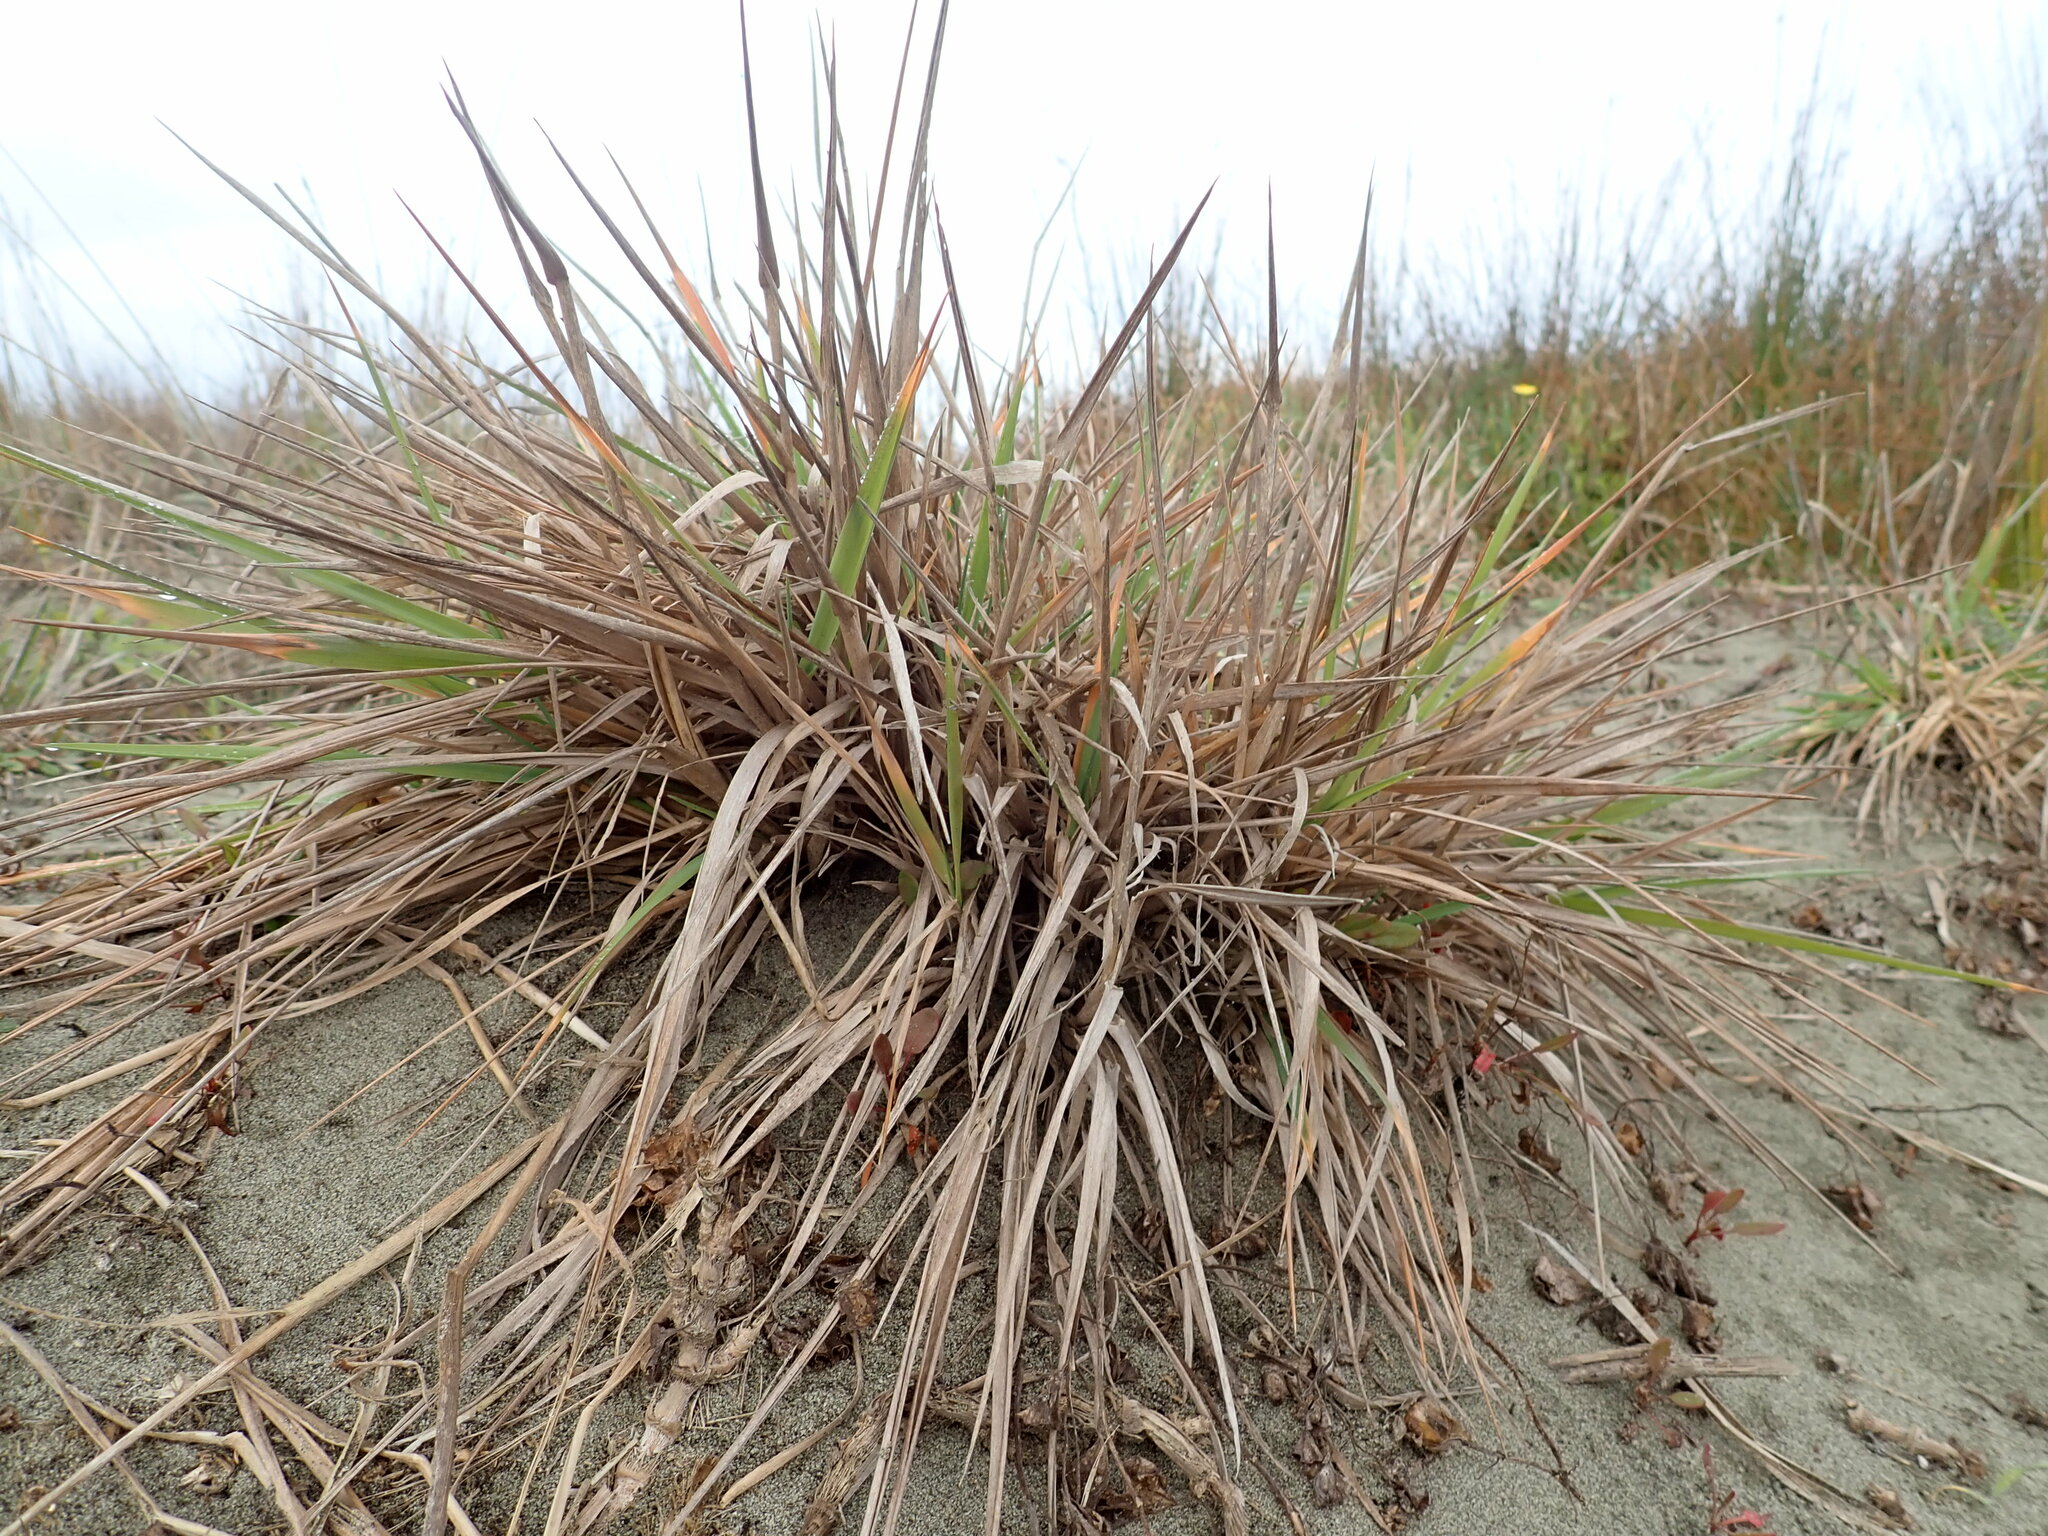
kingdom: Plantae
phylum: Tracheophyta
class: Liliopsida
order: Poales
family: Poaceae
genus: Lachnagrostis
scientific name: Lachnagrostis billardierei
